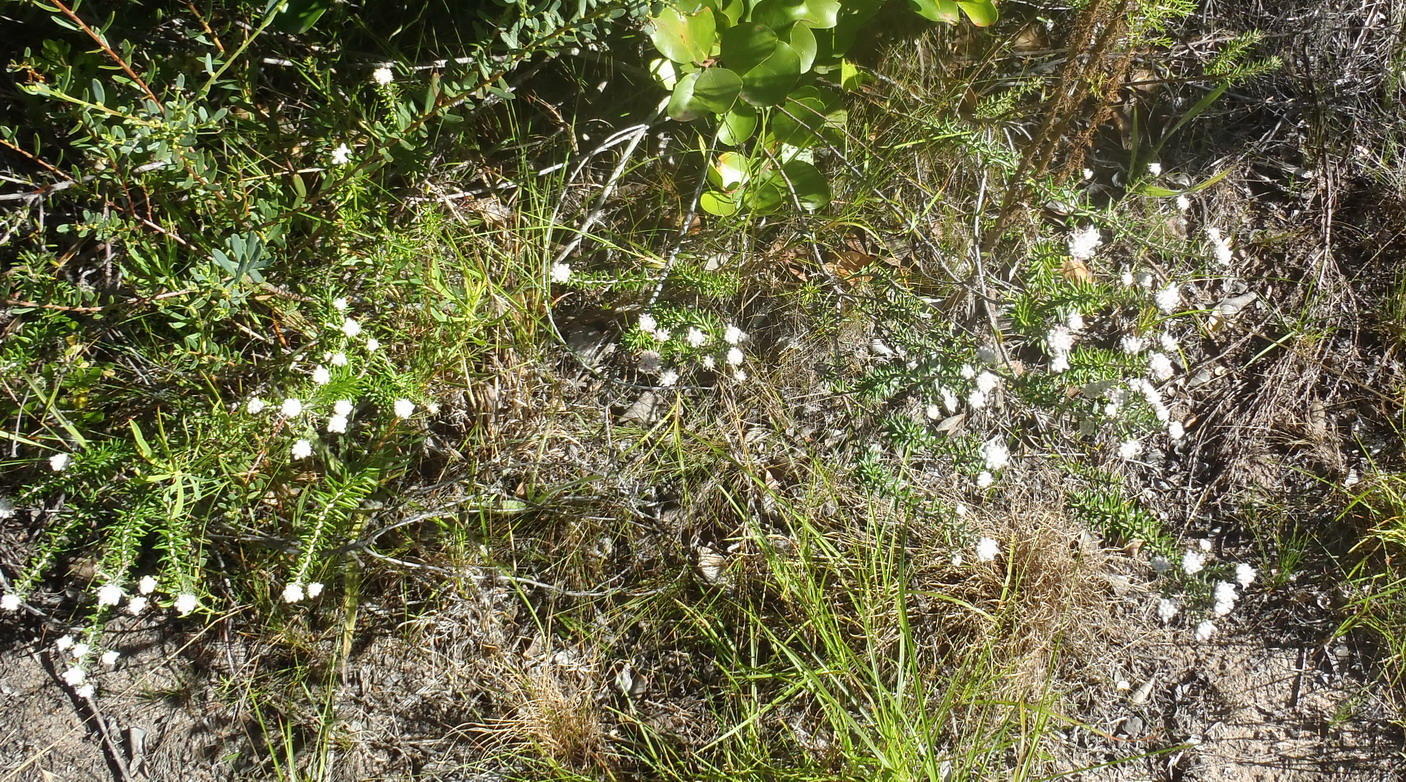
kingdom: Plantae
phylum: Tracheophyta
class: Magnoliopsida
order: Rosales
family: Rhamnaceae
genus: Trichocephalus
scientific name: Trichocephalus stipularis
